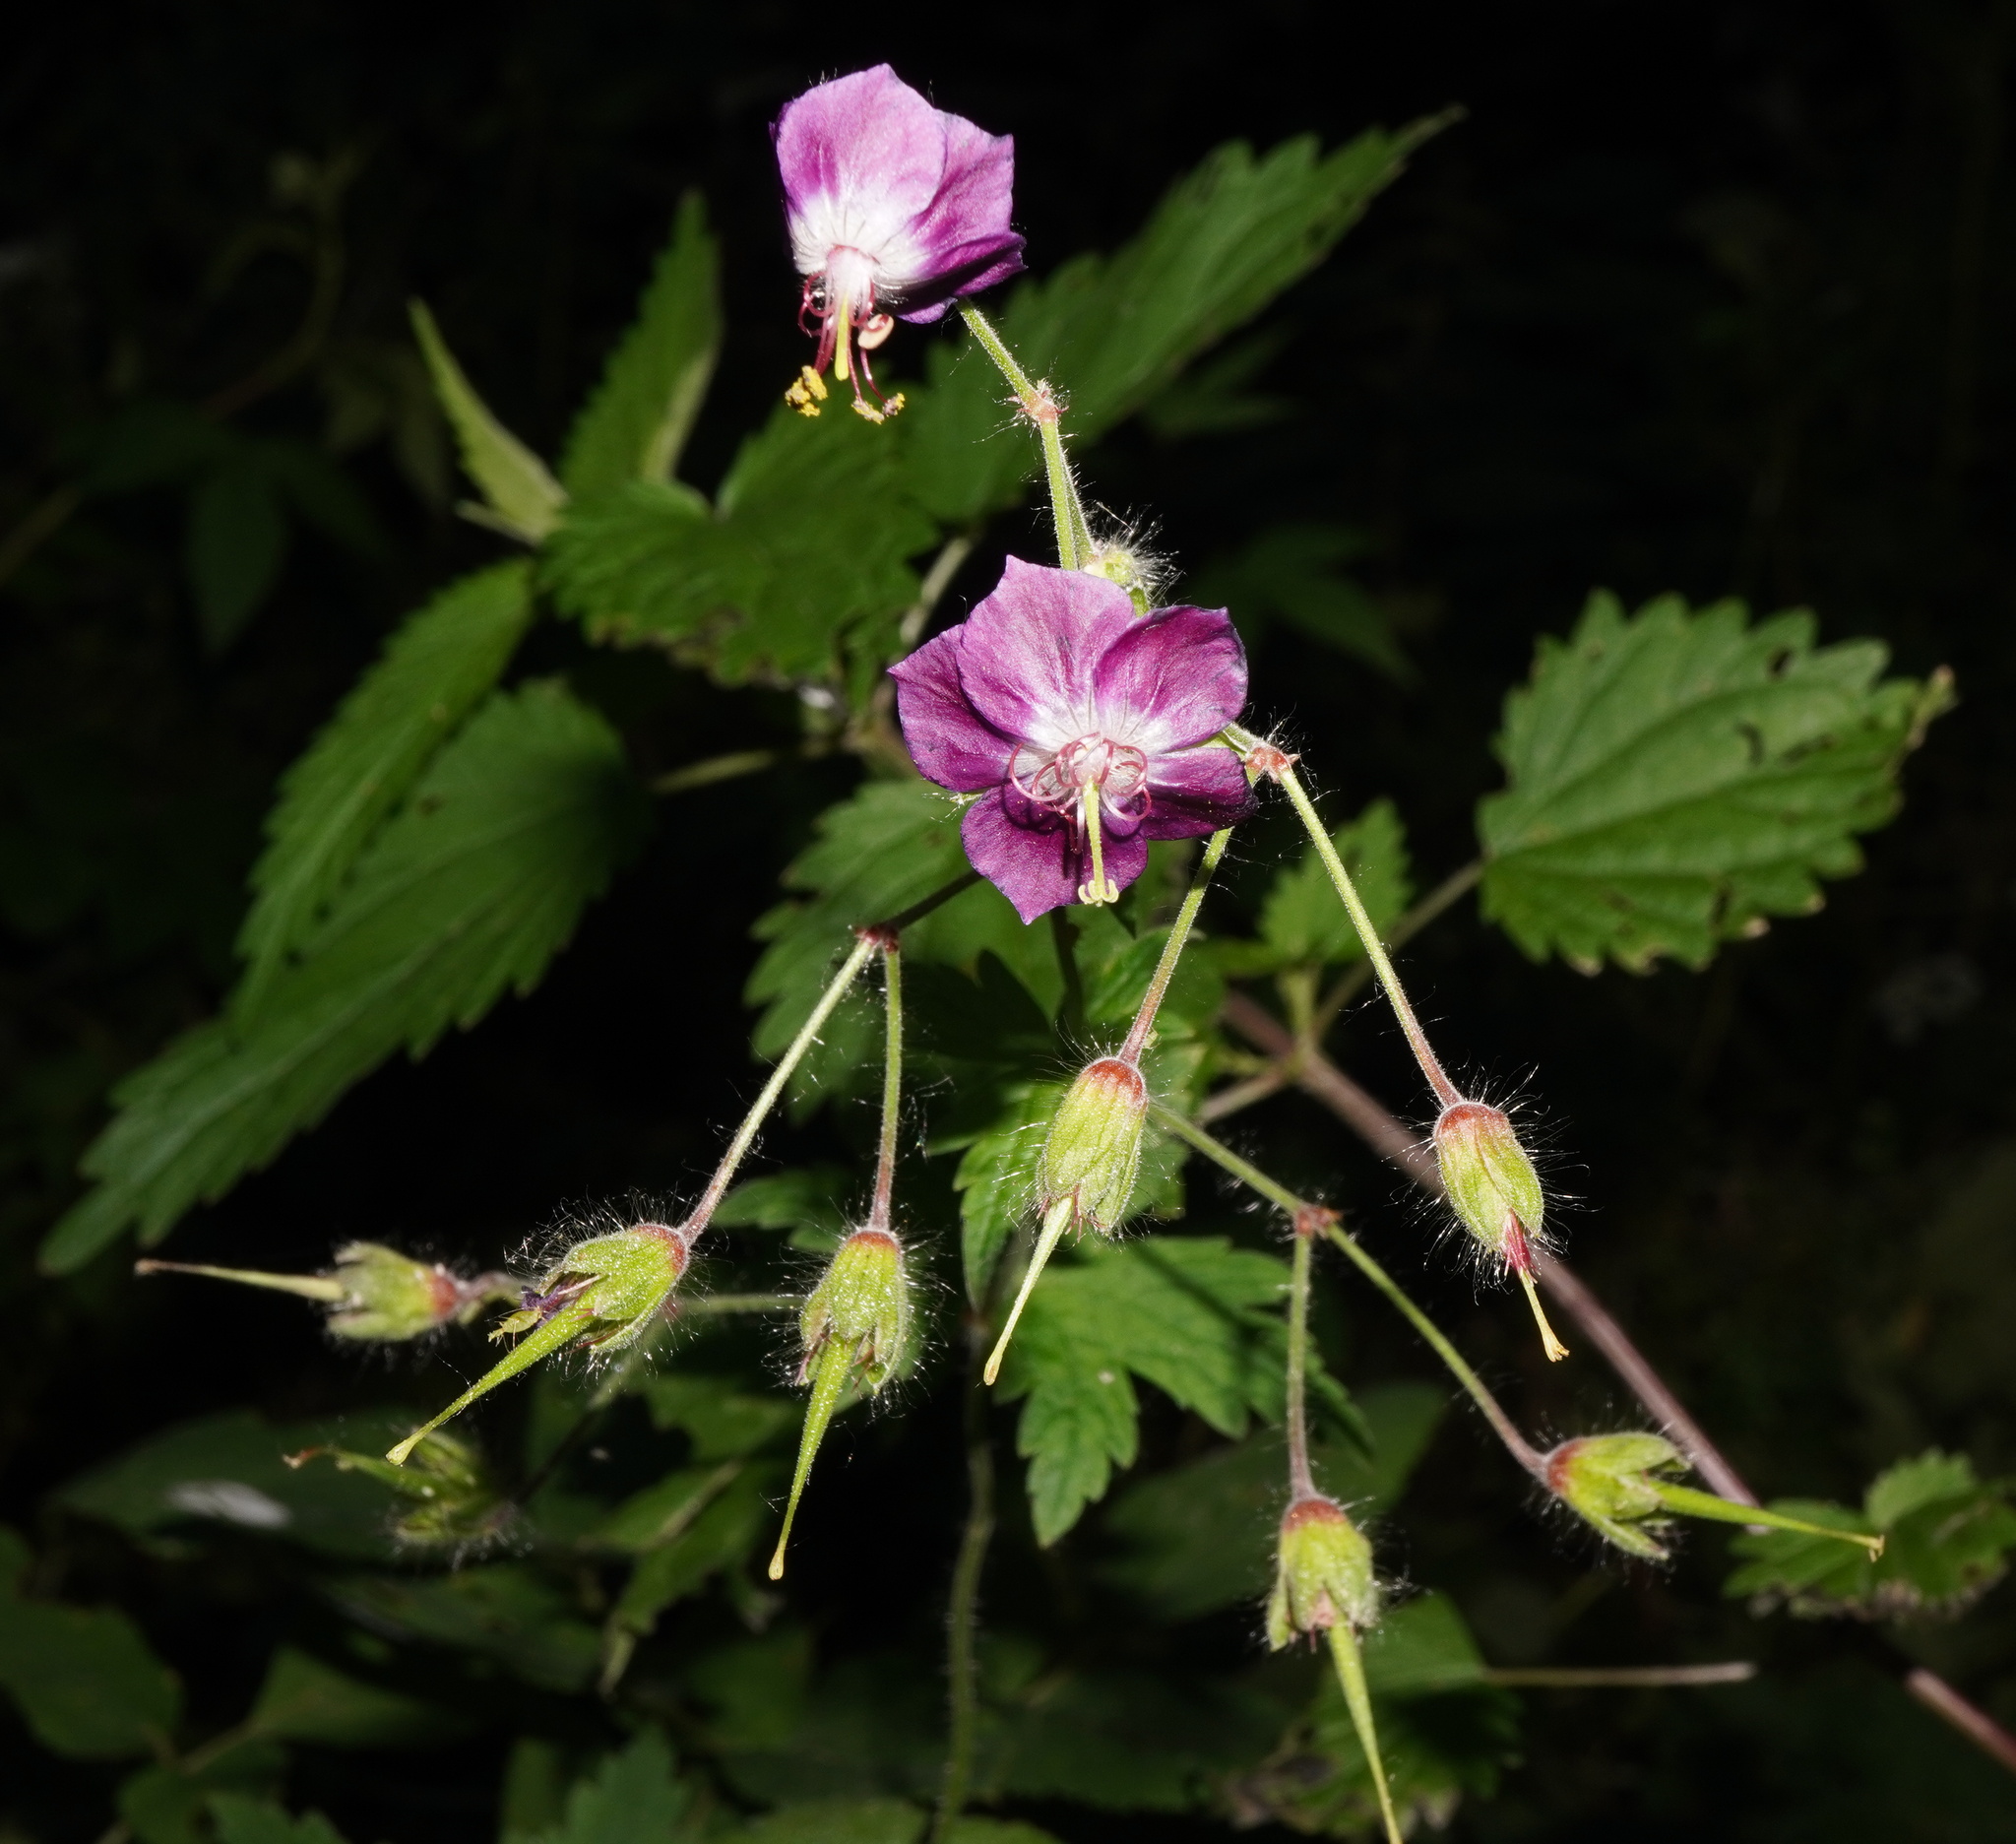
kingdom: Plantae
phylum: Tracheophyta
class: Magnoliopsida
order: Geraniales
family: Geraniaceae
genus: Geranium
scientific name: Geranium phaeum
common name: Dusky crane's-bill
